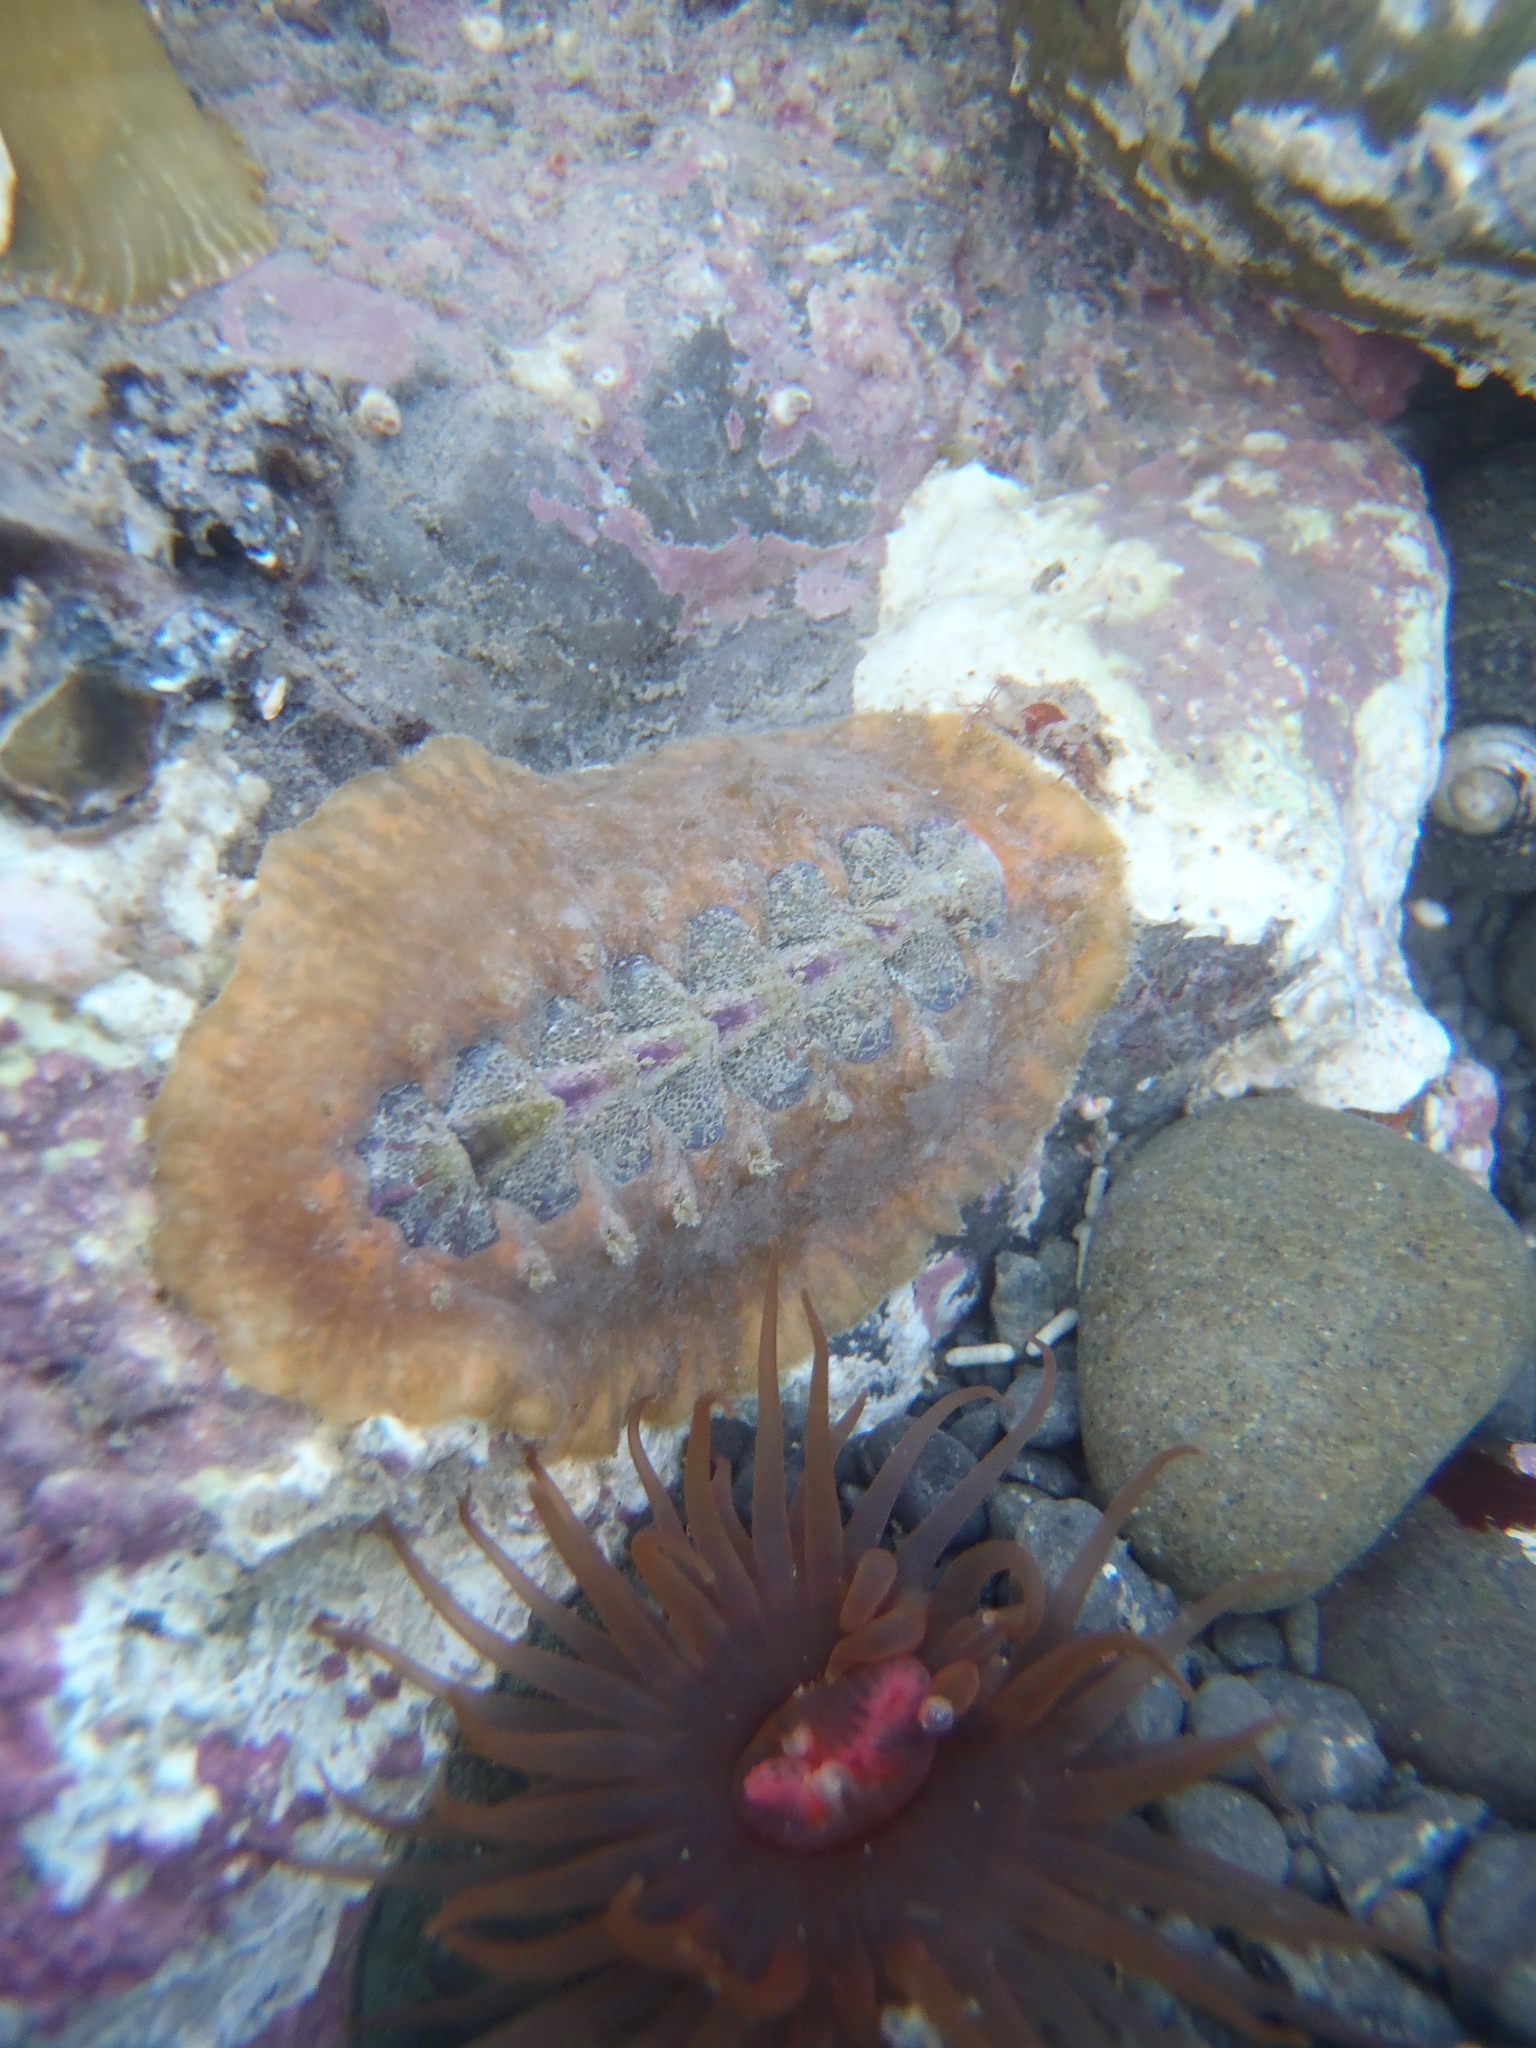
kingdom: Animalia
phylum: Mollusca
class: Polyplacophora
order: Chitonida
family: Acanthochitonidae
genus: Notoplax
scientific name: Notoplax violacea
